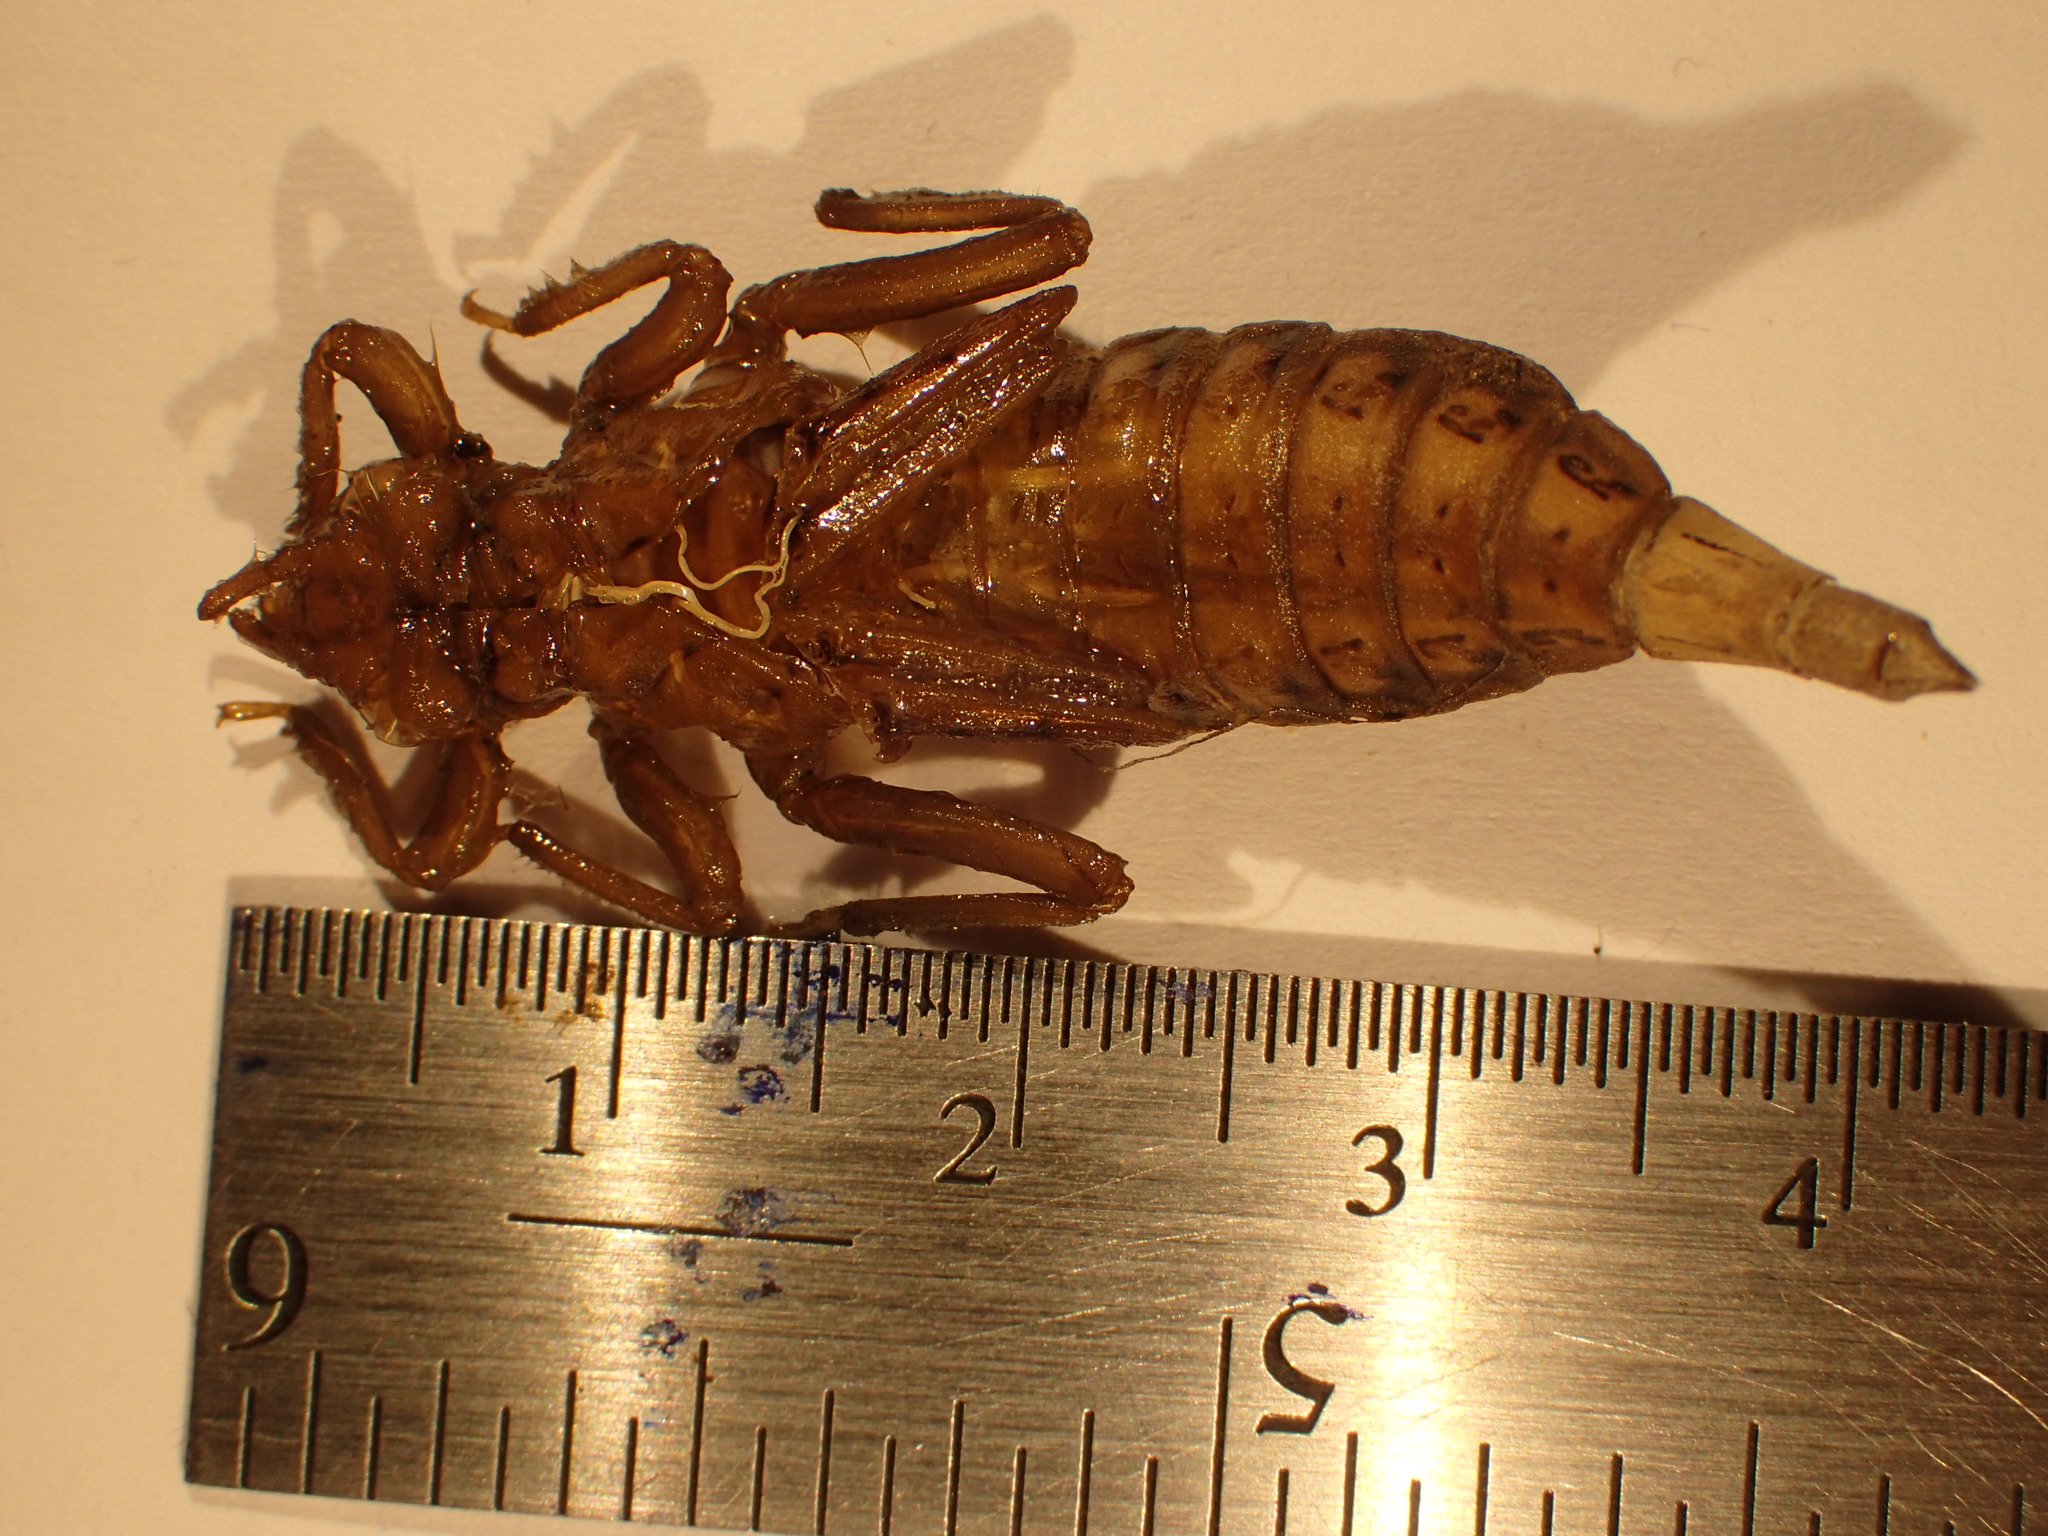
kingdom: Animalia
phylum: Arthropoda
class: Insecta
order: Odonata
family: Gomphidae
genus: Arigomphus
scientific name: Arigomphus cornutus
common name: Horned clubtail
